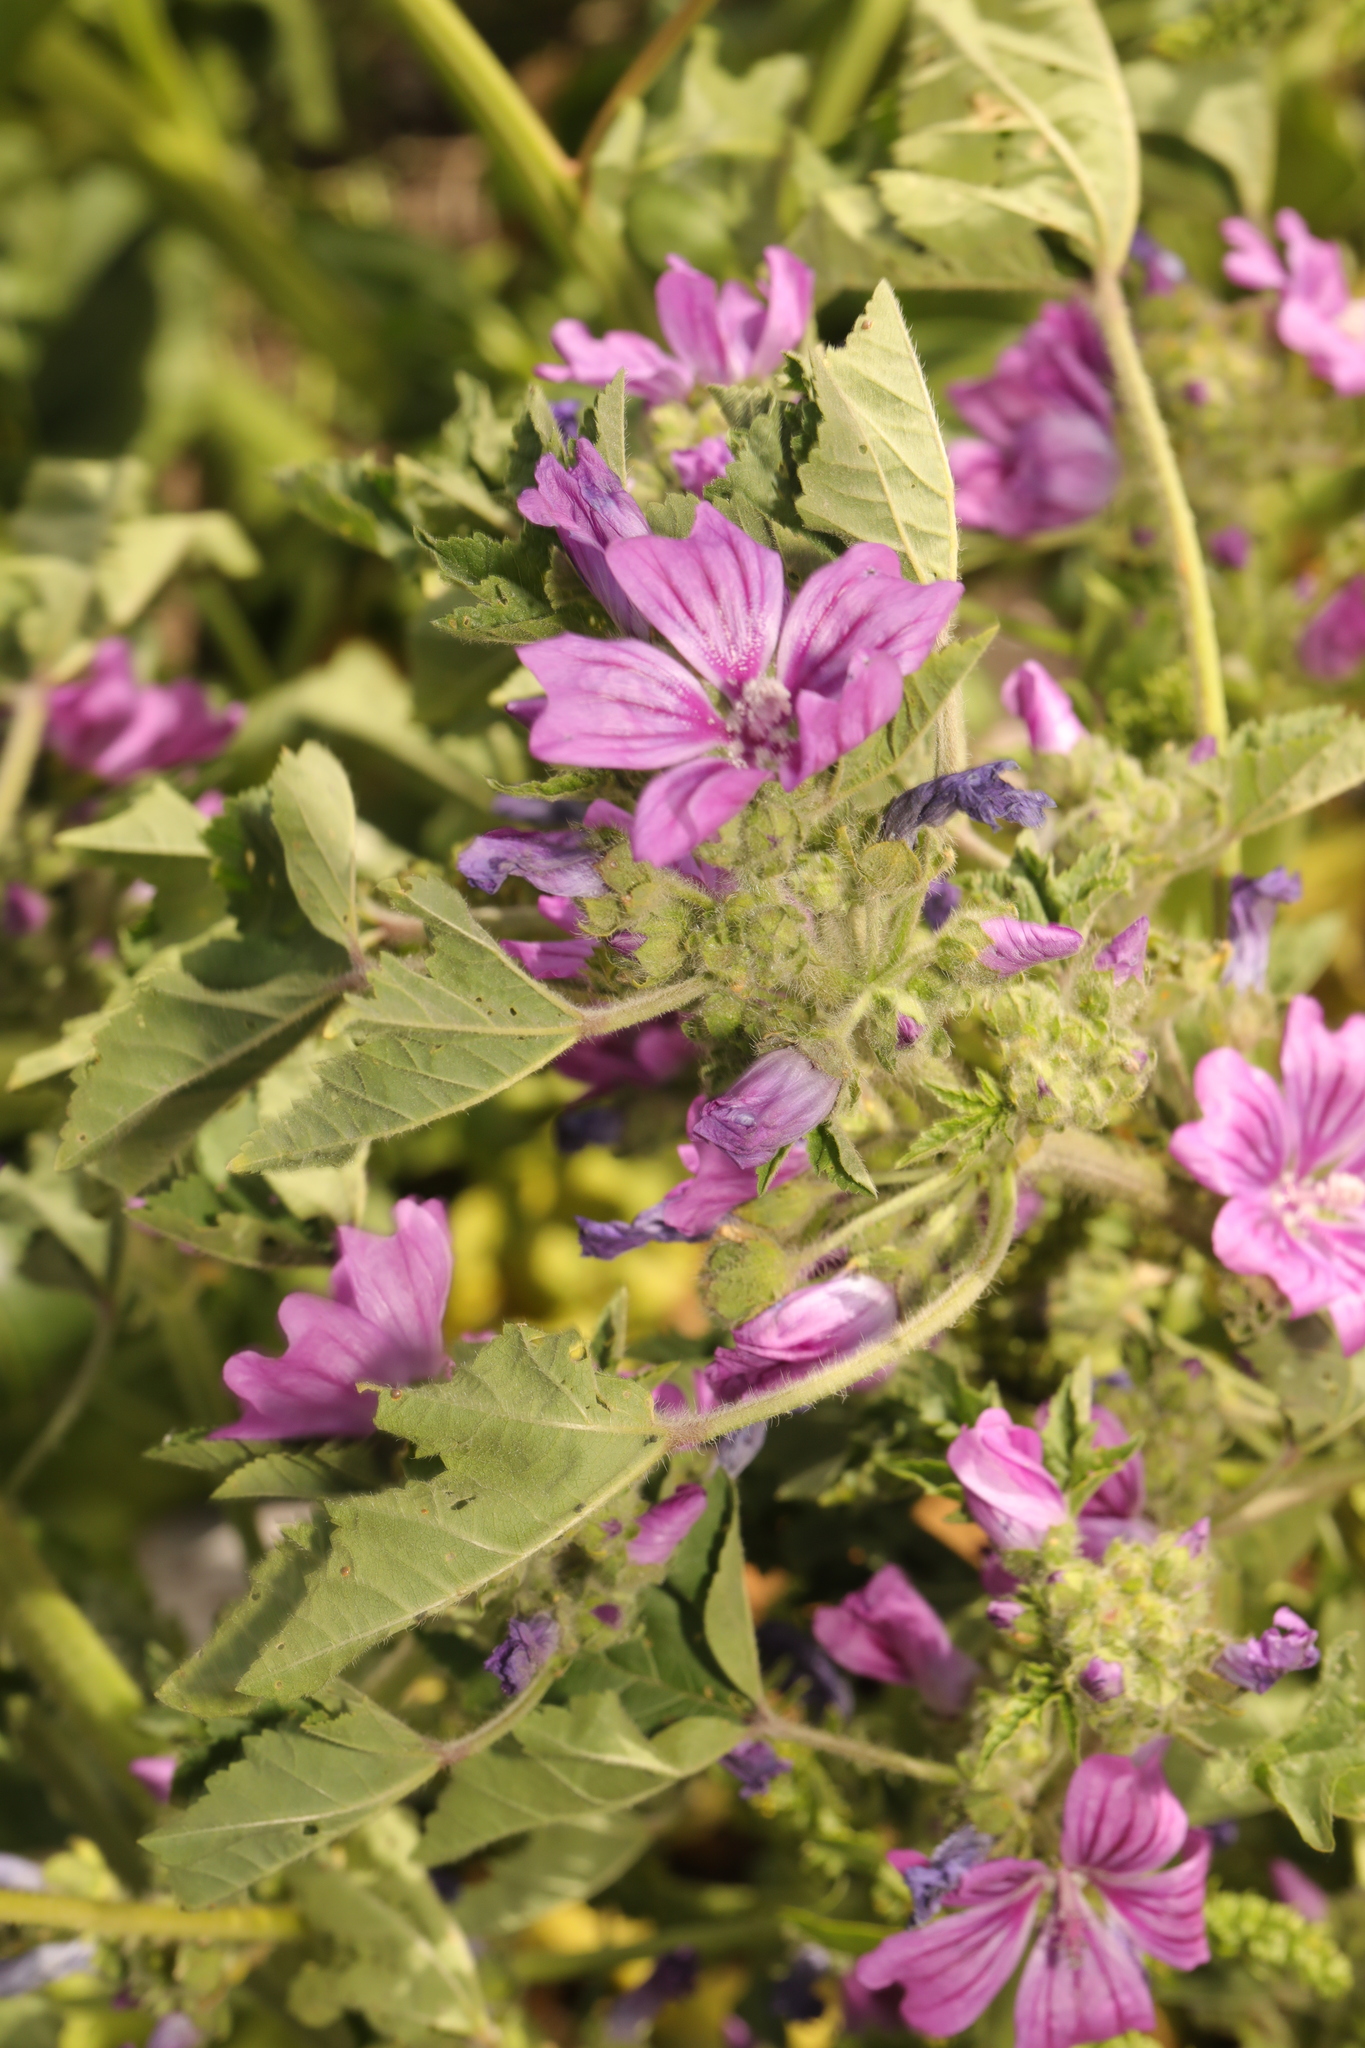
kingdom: Plantae
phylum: Tracheophyta
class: Magnoliopsida
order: Malvales
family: Malvaceae
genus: Malva
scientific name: Malva sylvestris
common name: Common mallow
